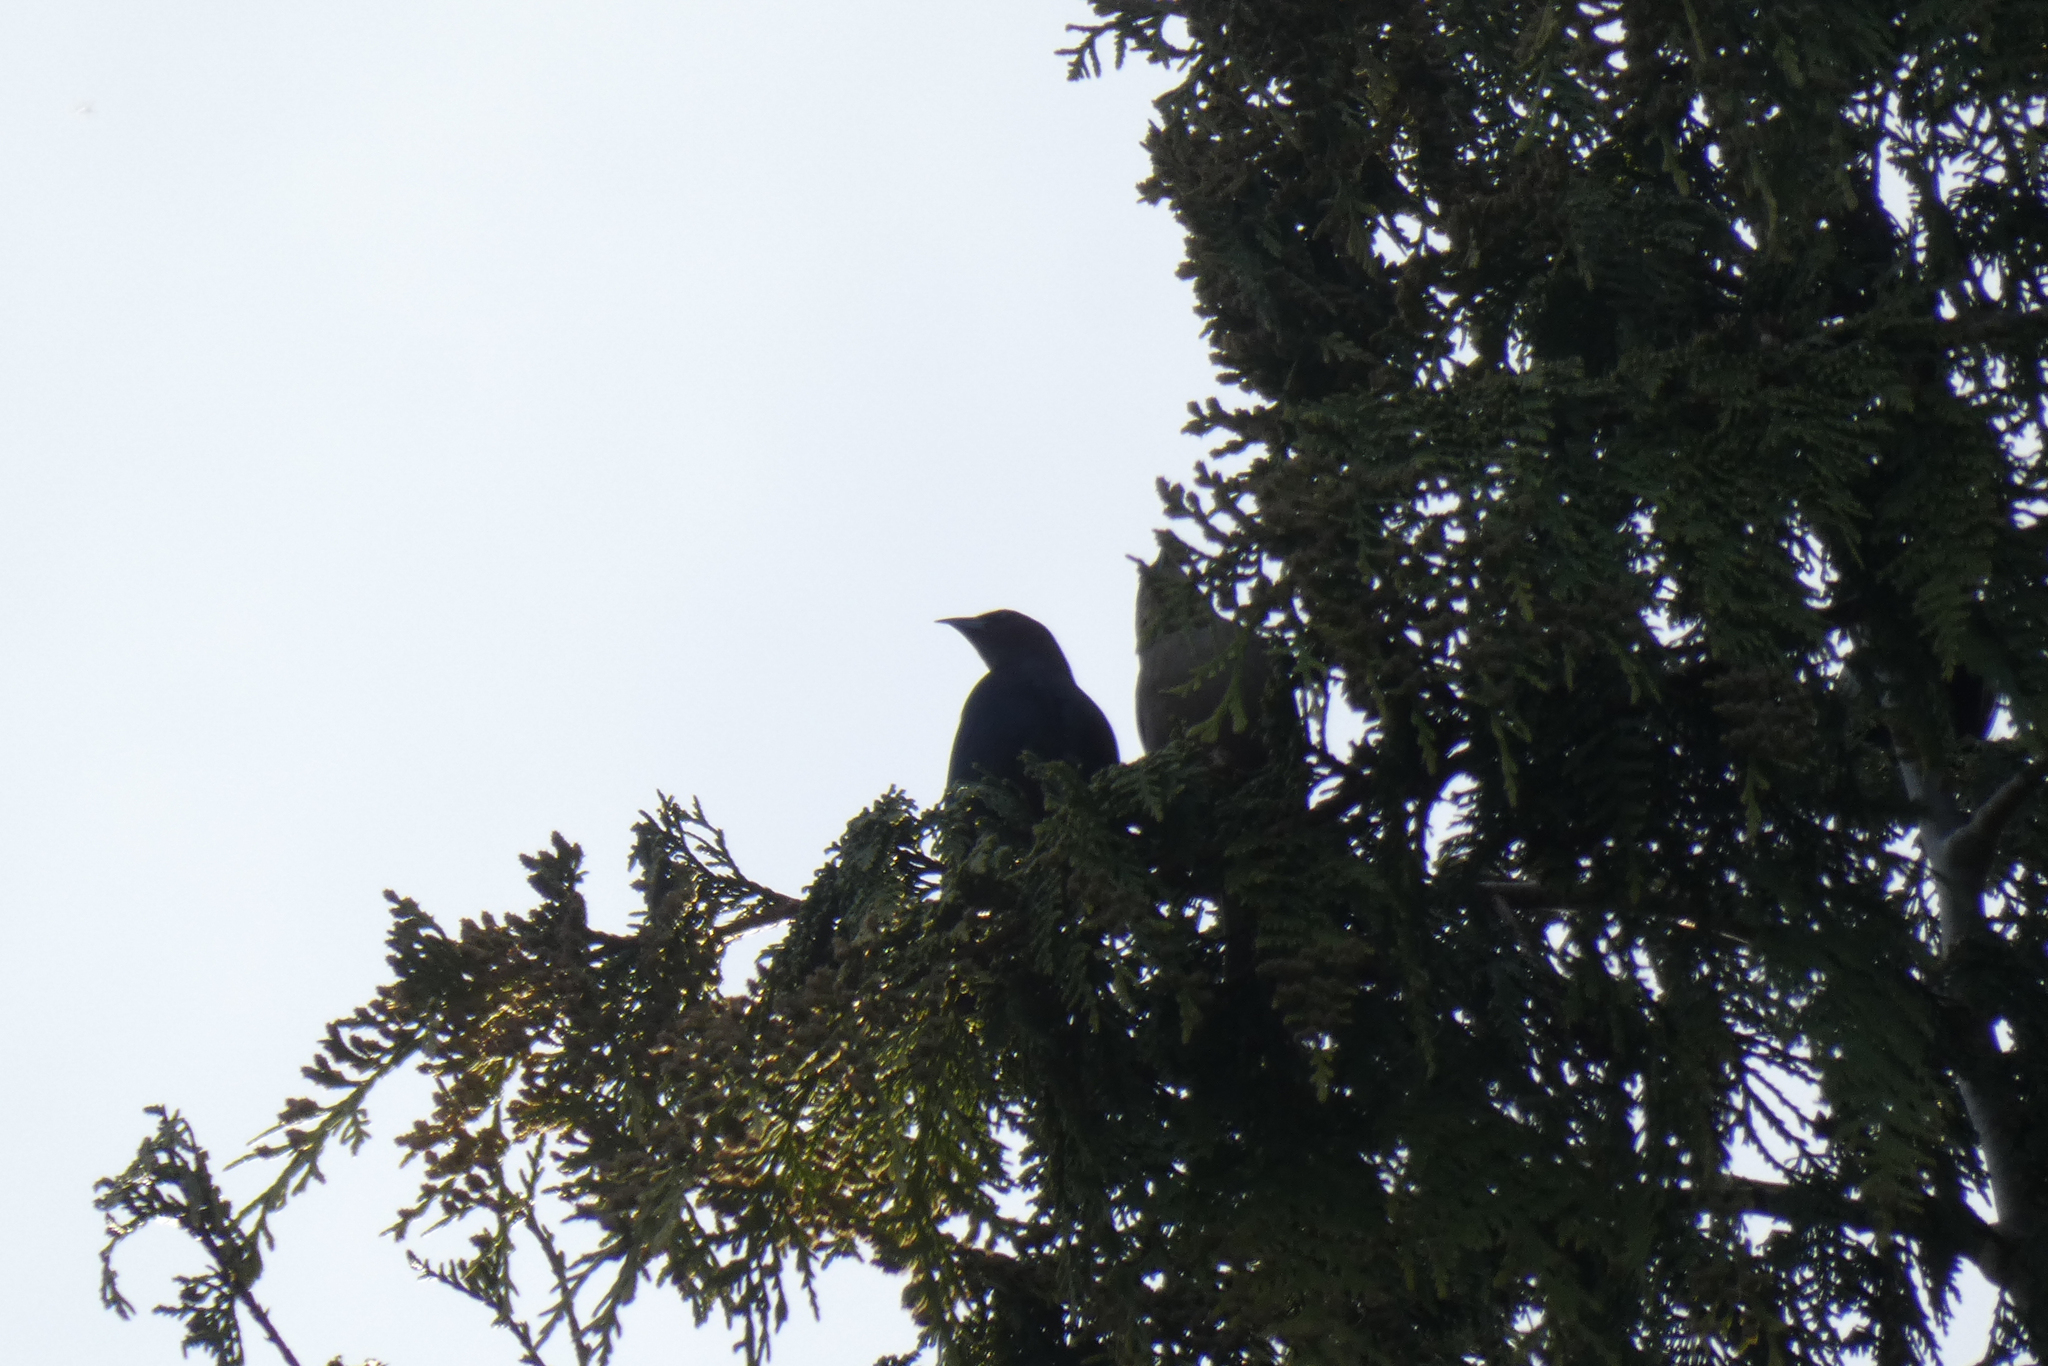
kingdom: Animalia
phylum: Chordata
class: Aves
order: Passeriformes
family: Icteridae
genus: Molothrus
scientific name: Molothrus ater
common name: Brown-headed cowbird
